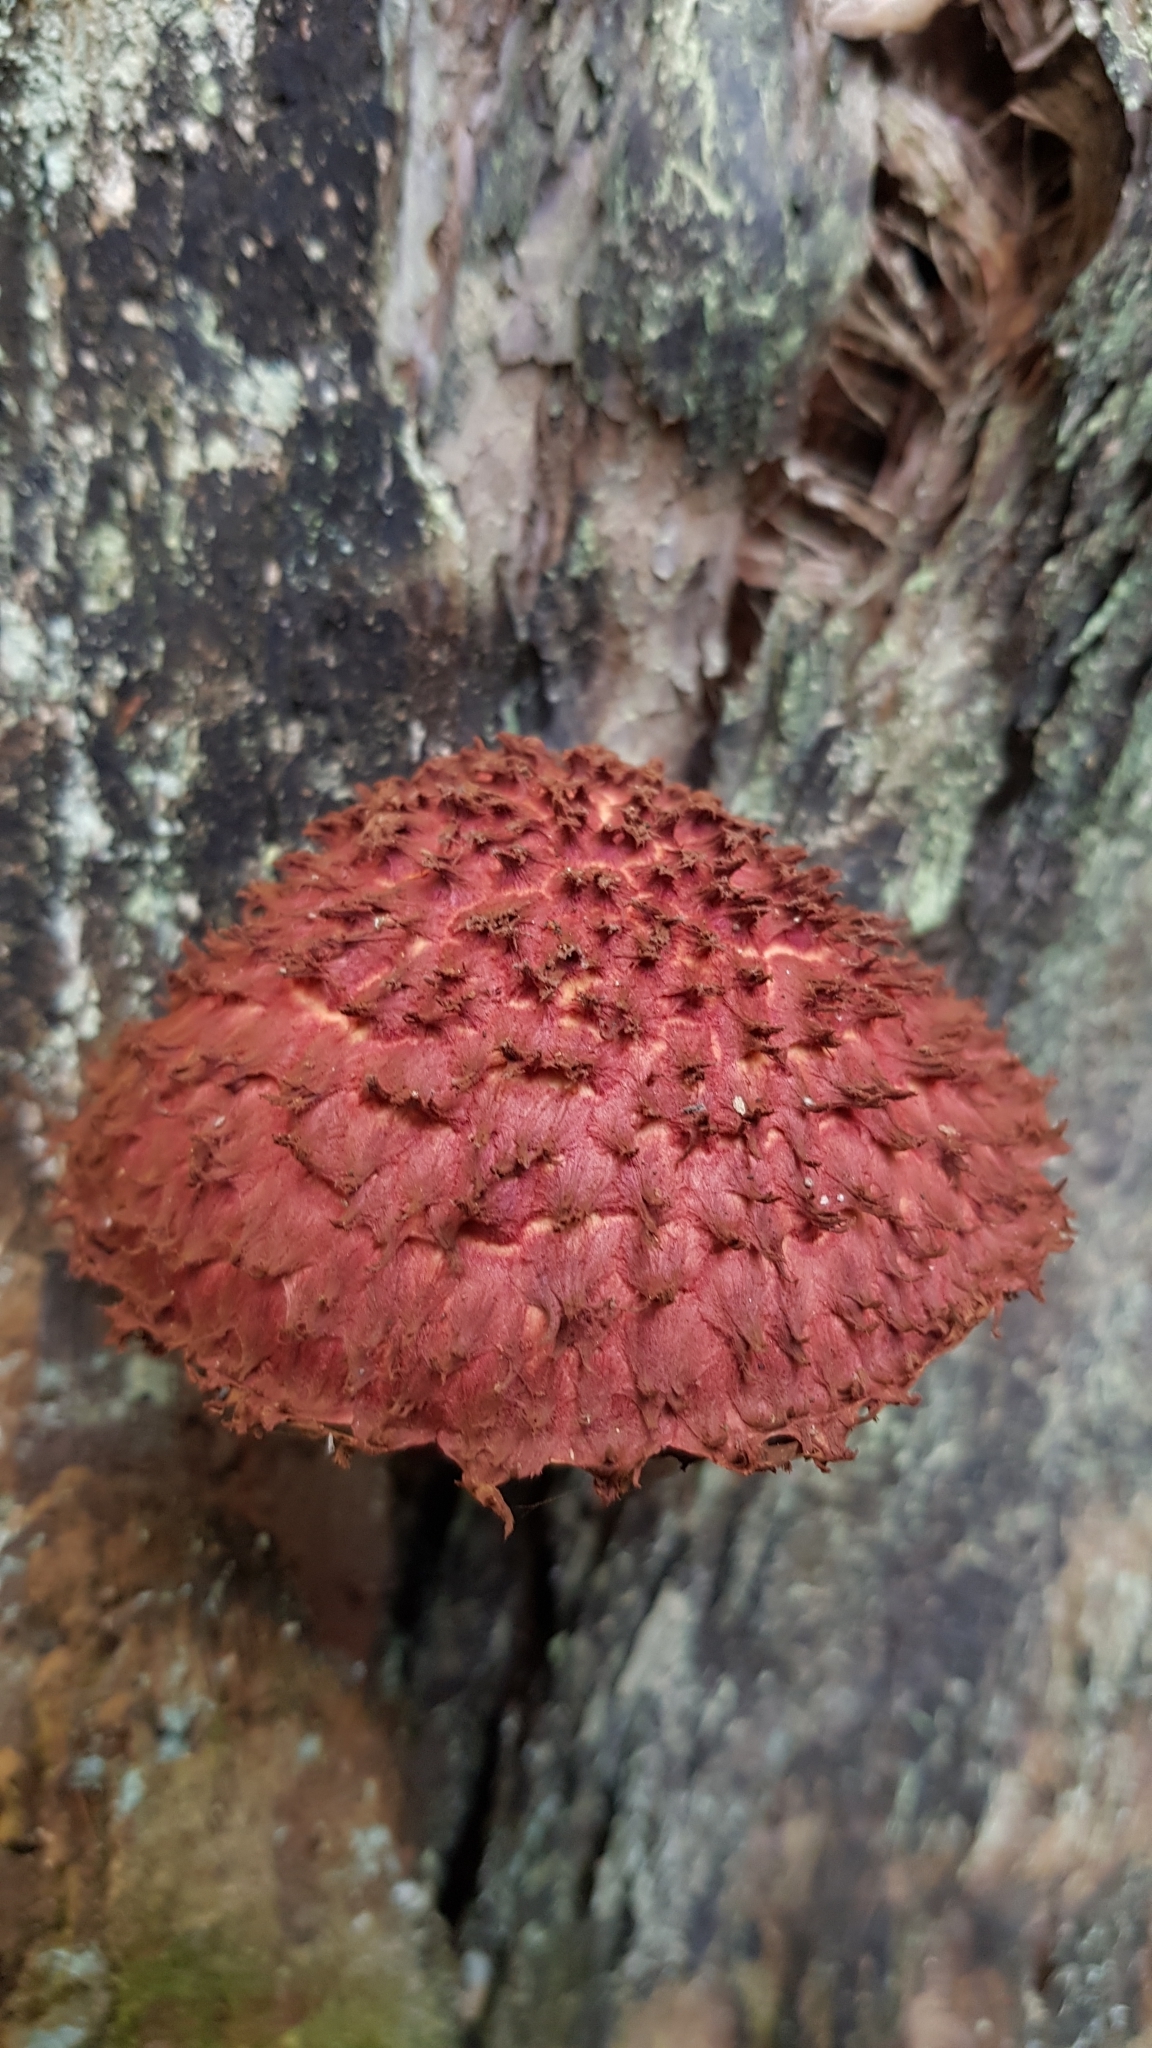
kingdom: Fungi
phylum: Basidiomycota
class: Agaricomycetes
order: Boletales
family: Boletaceae
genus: Boletellus
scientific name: Boletellus emodensis
